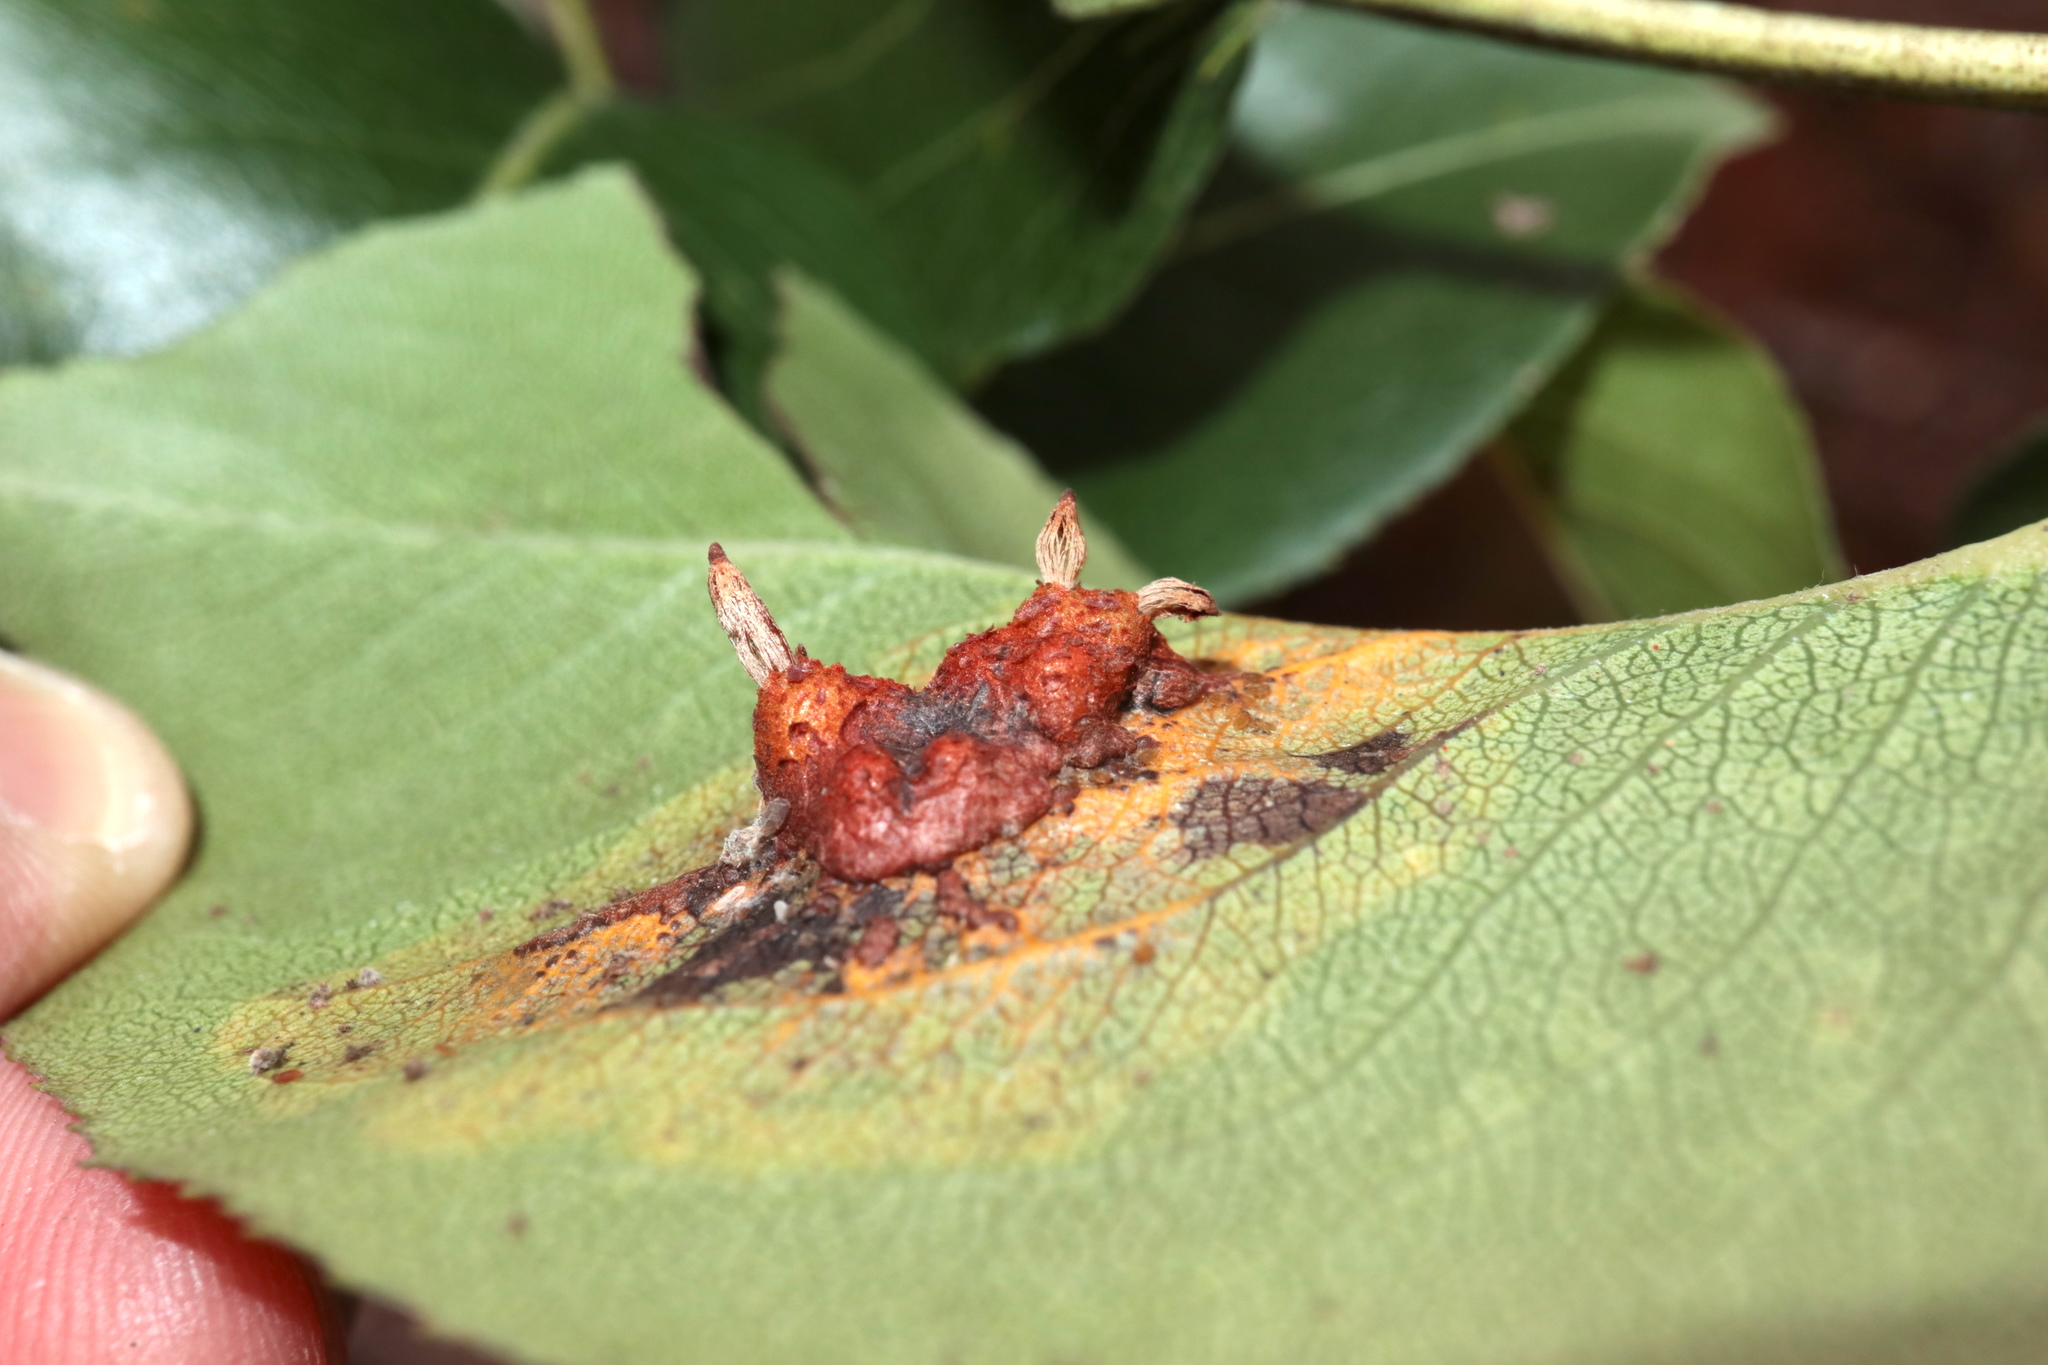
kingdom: Fungi
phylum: Basidiomycota
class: Pucciniomycetes
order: Pucciniales
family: Gymnosporangiaceae
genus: Gymnosporangium
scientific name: Gymnosporangium sabinae
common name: Pear trellis rust fungus
